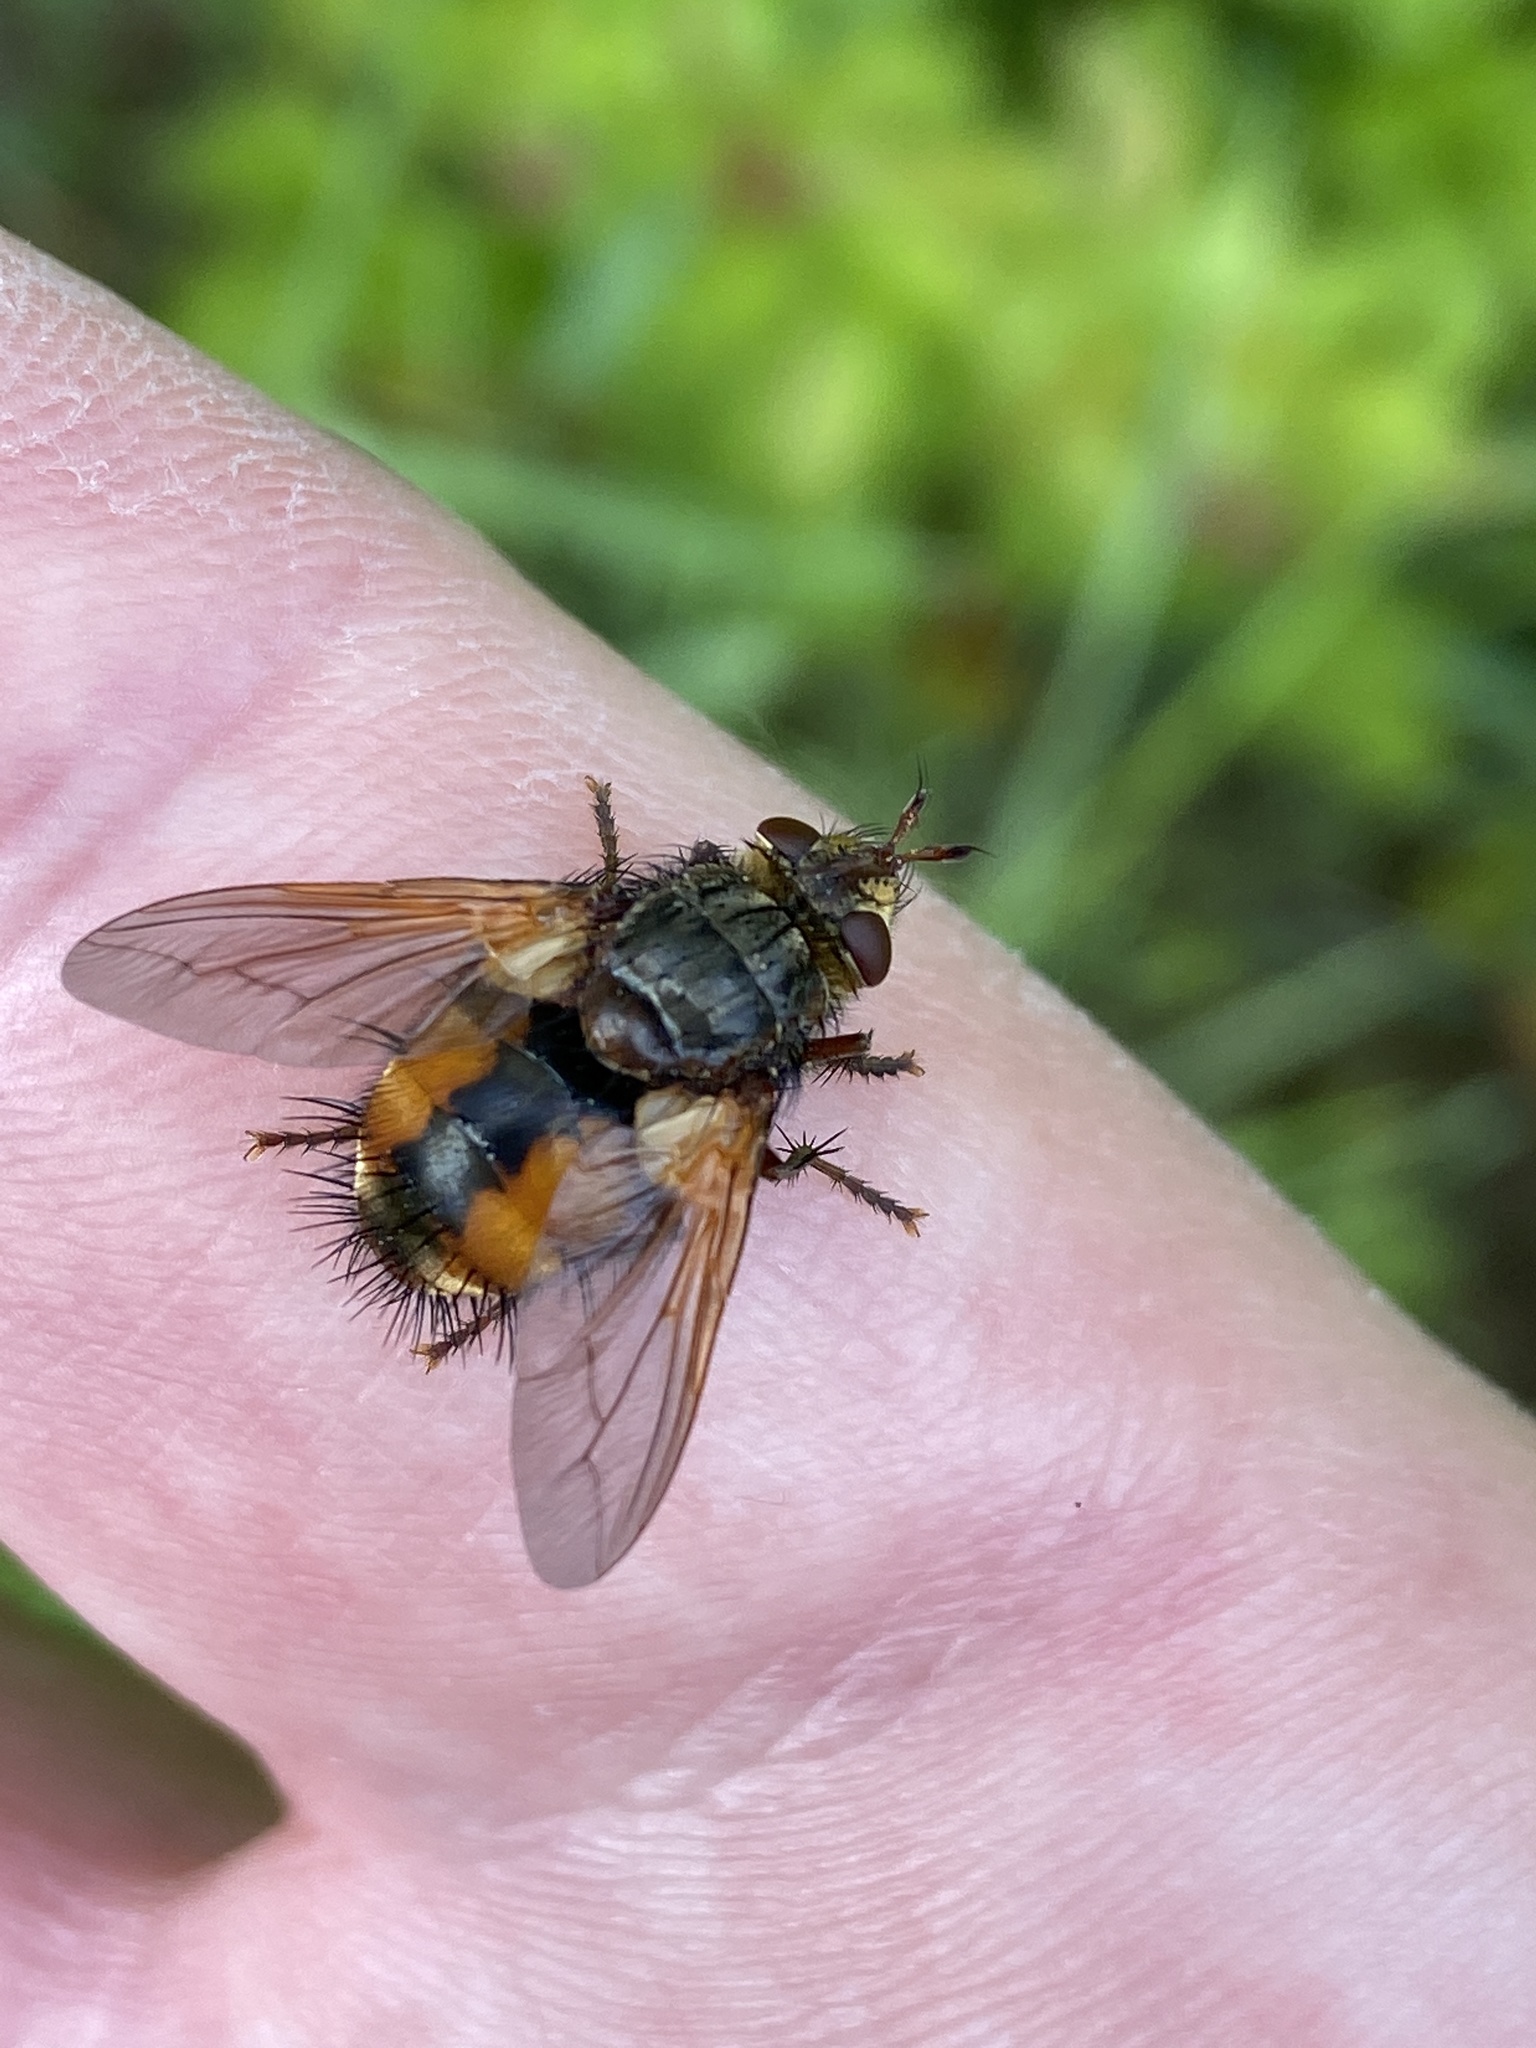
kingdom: Animalia
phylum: Arthropoda
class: Insecta
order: Diptera
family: Tachinidae
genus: Tachina
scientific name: Tachina magnicornis
